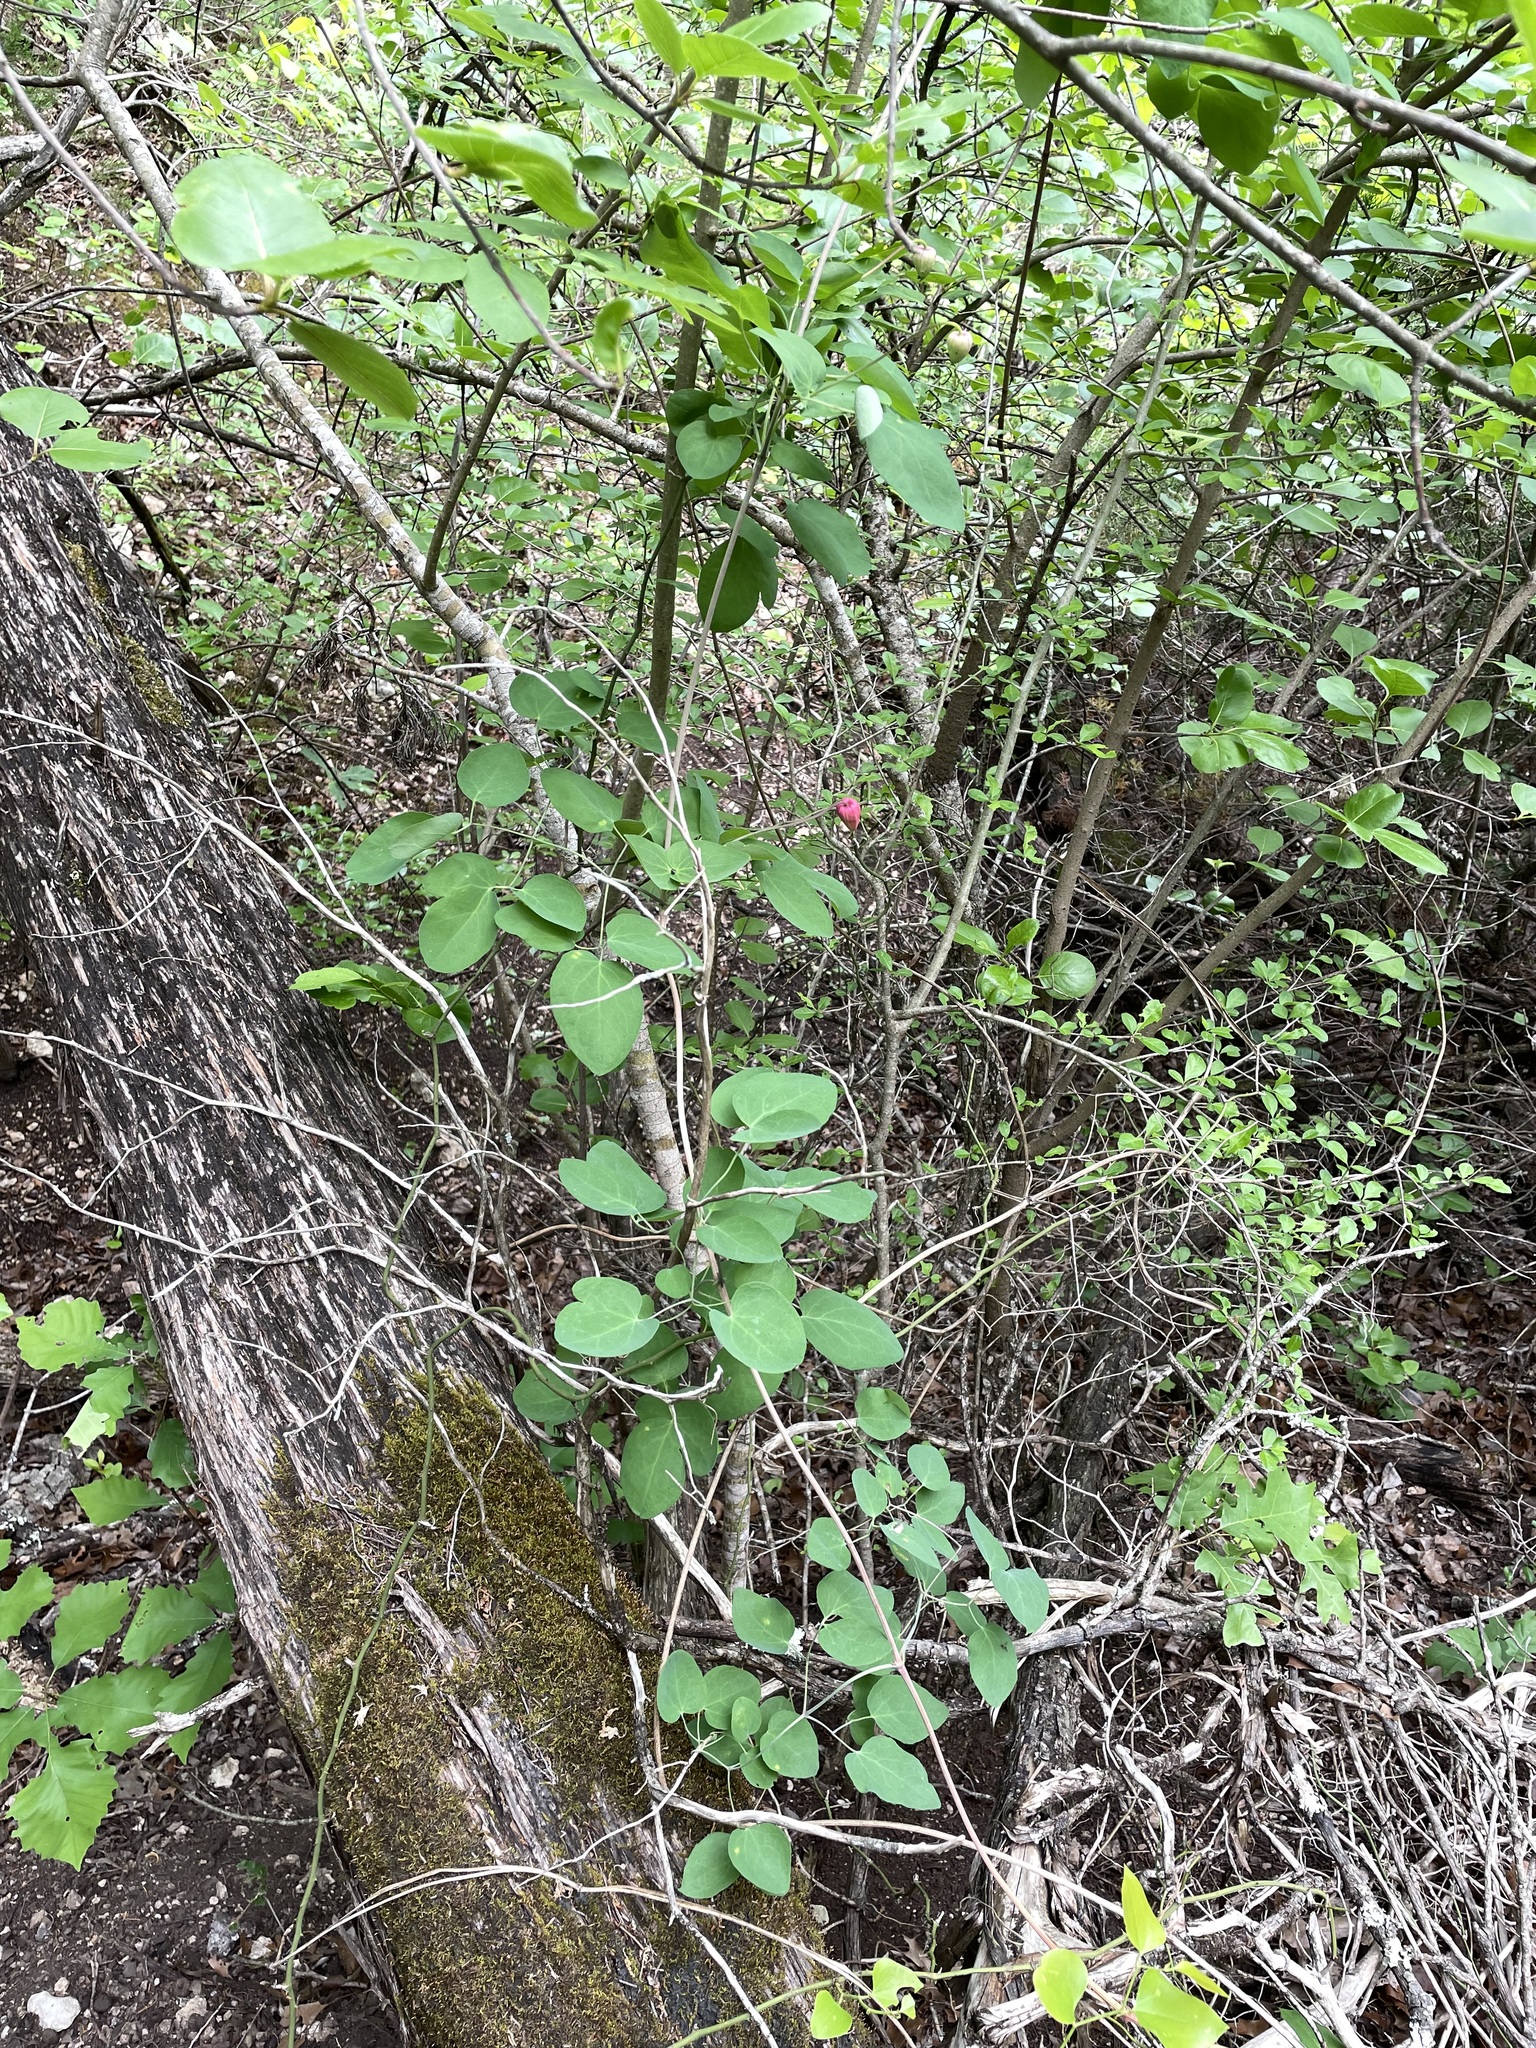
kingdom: Plantae
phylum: Tracheophyta
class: Magnoliopsida
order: Ranunculales
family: Ranunculaceae
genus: Clematis
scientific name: Clematis texensis
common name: Crimson clematis
